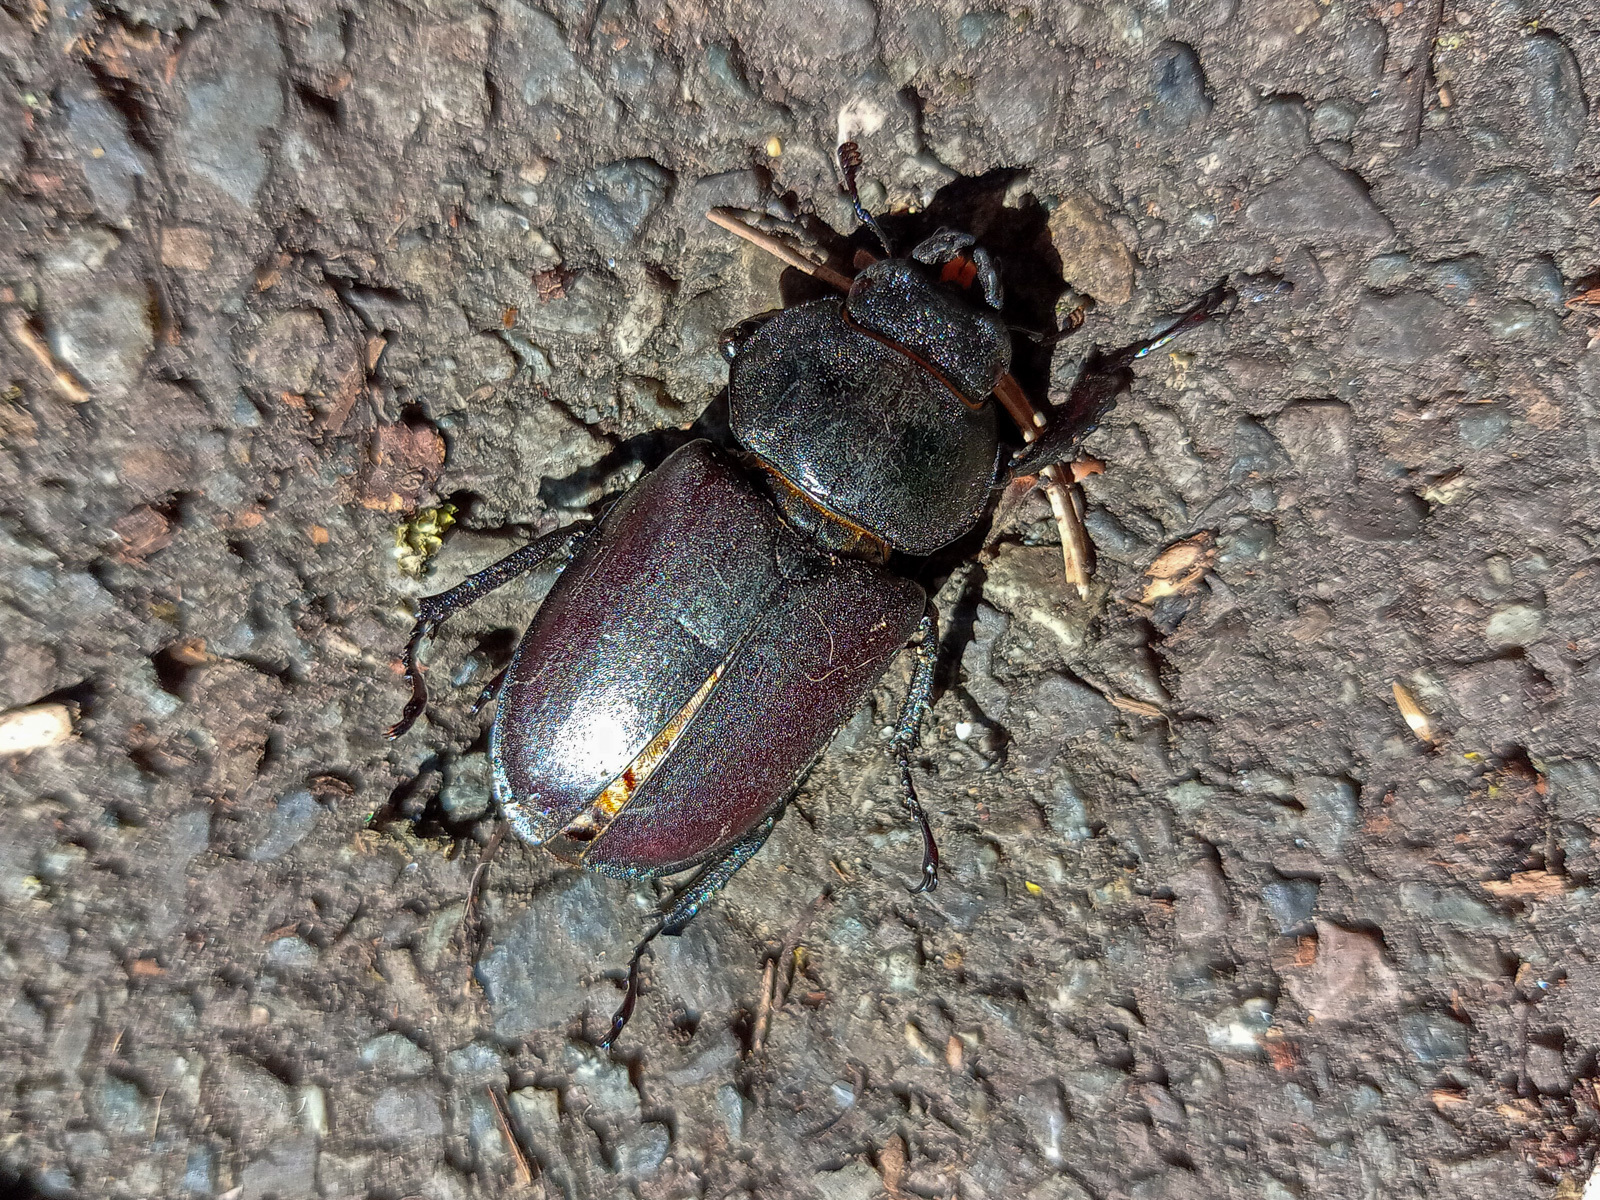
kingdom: Animalia
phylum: Arthropoda
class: Insecta
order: Coleoptera
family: Lucanidae
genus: Lucanus
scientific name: Lucanus cervus
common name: Stag beetle
